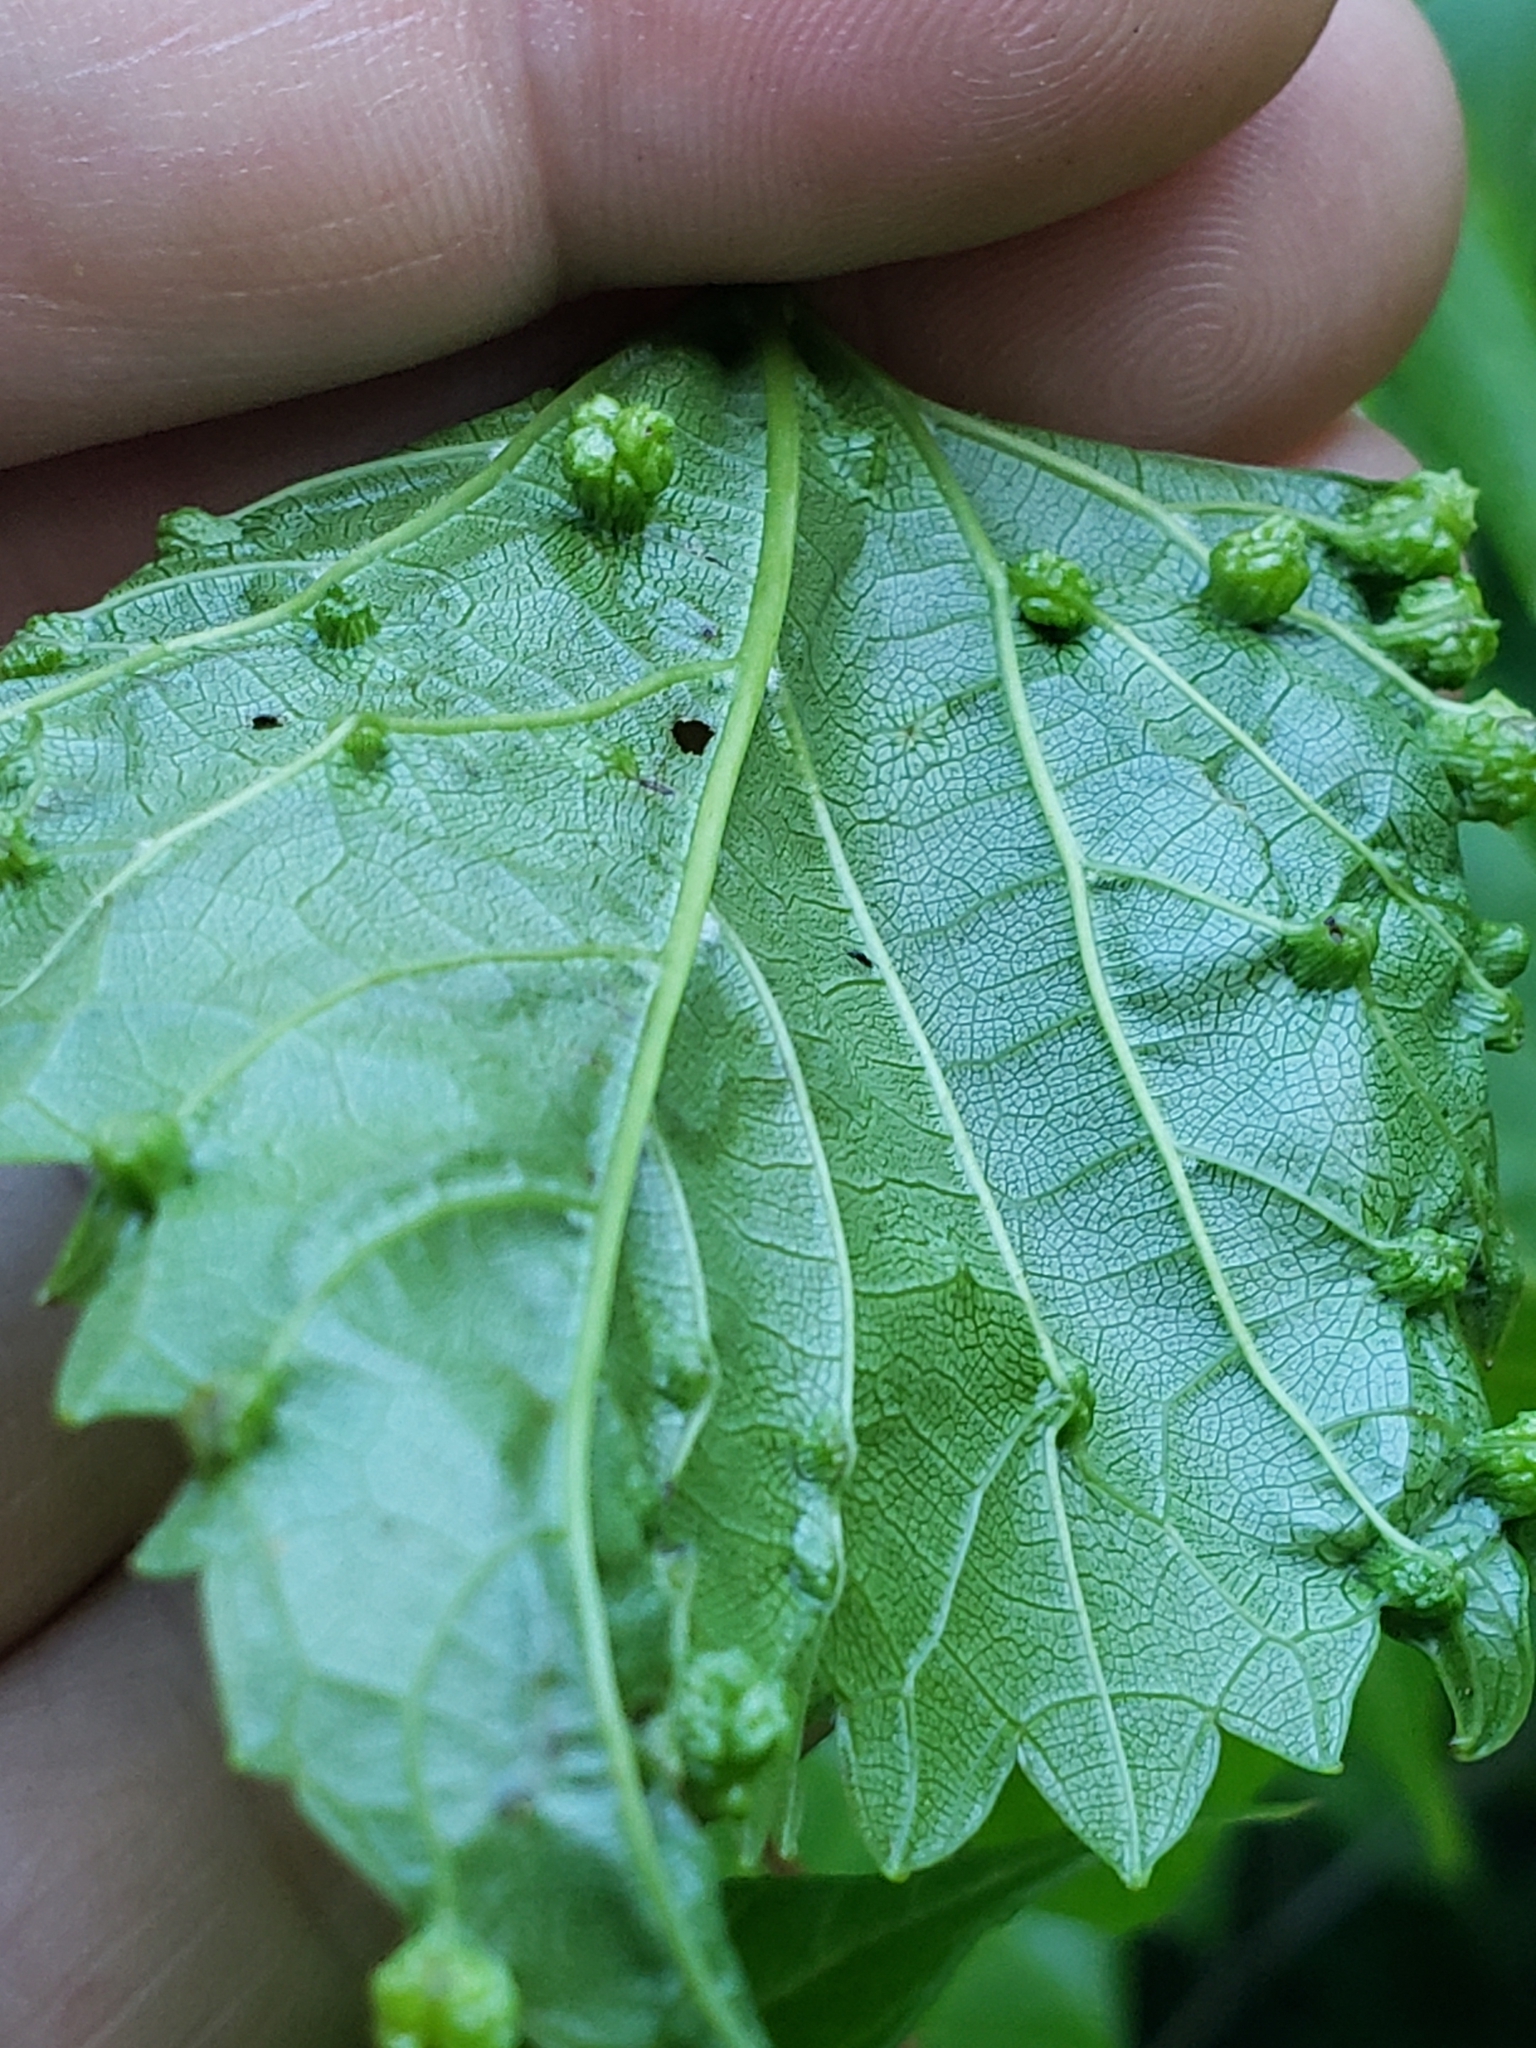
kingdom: Animalia
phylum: Arthropoda
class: Insecta
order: Hemiptera
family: Phylloxeridae
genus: Daktulosphaira
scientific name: Daktulosphaira vitifoliae
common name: Grape phylloxera
